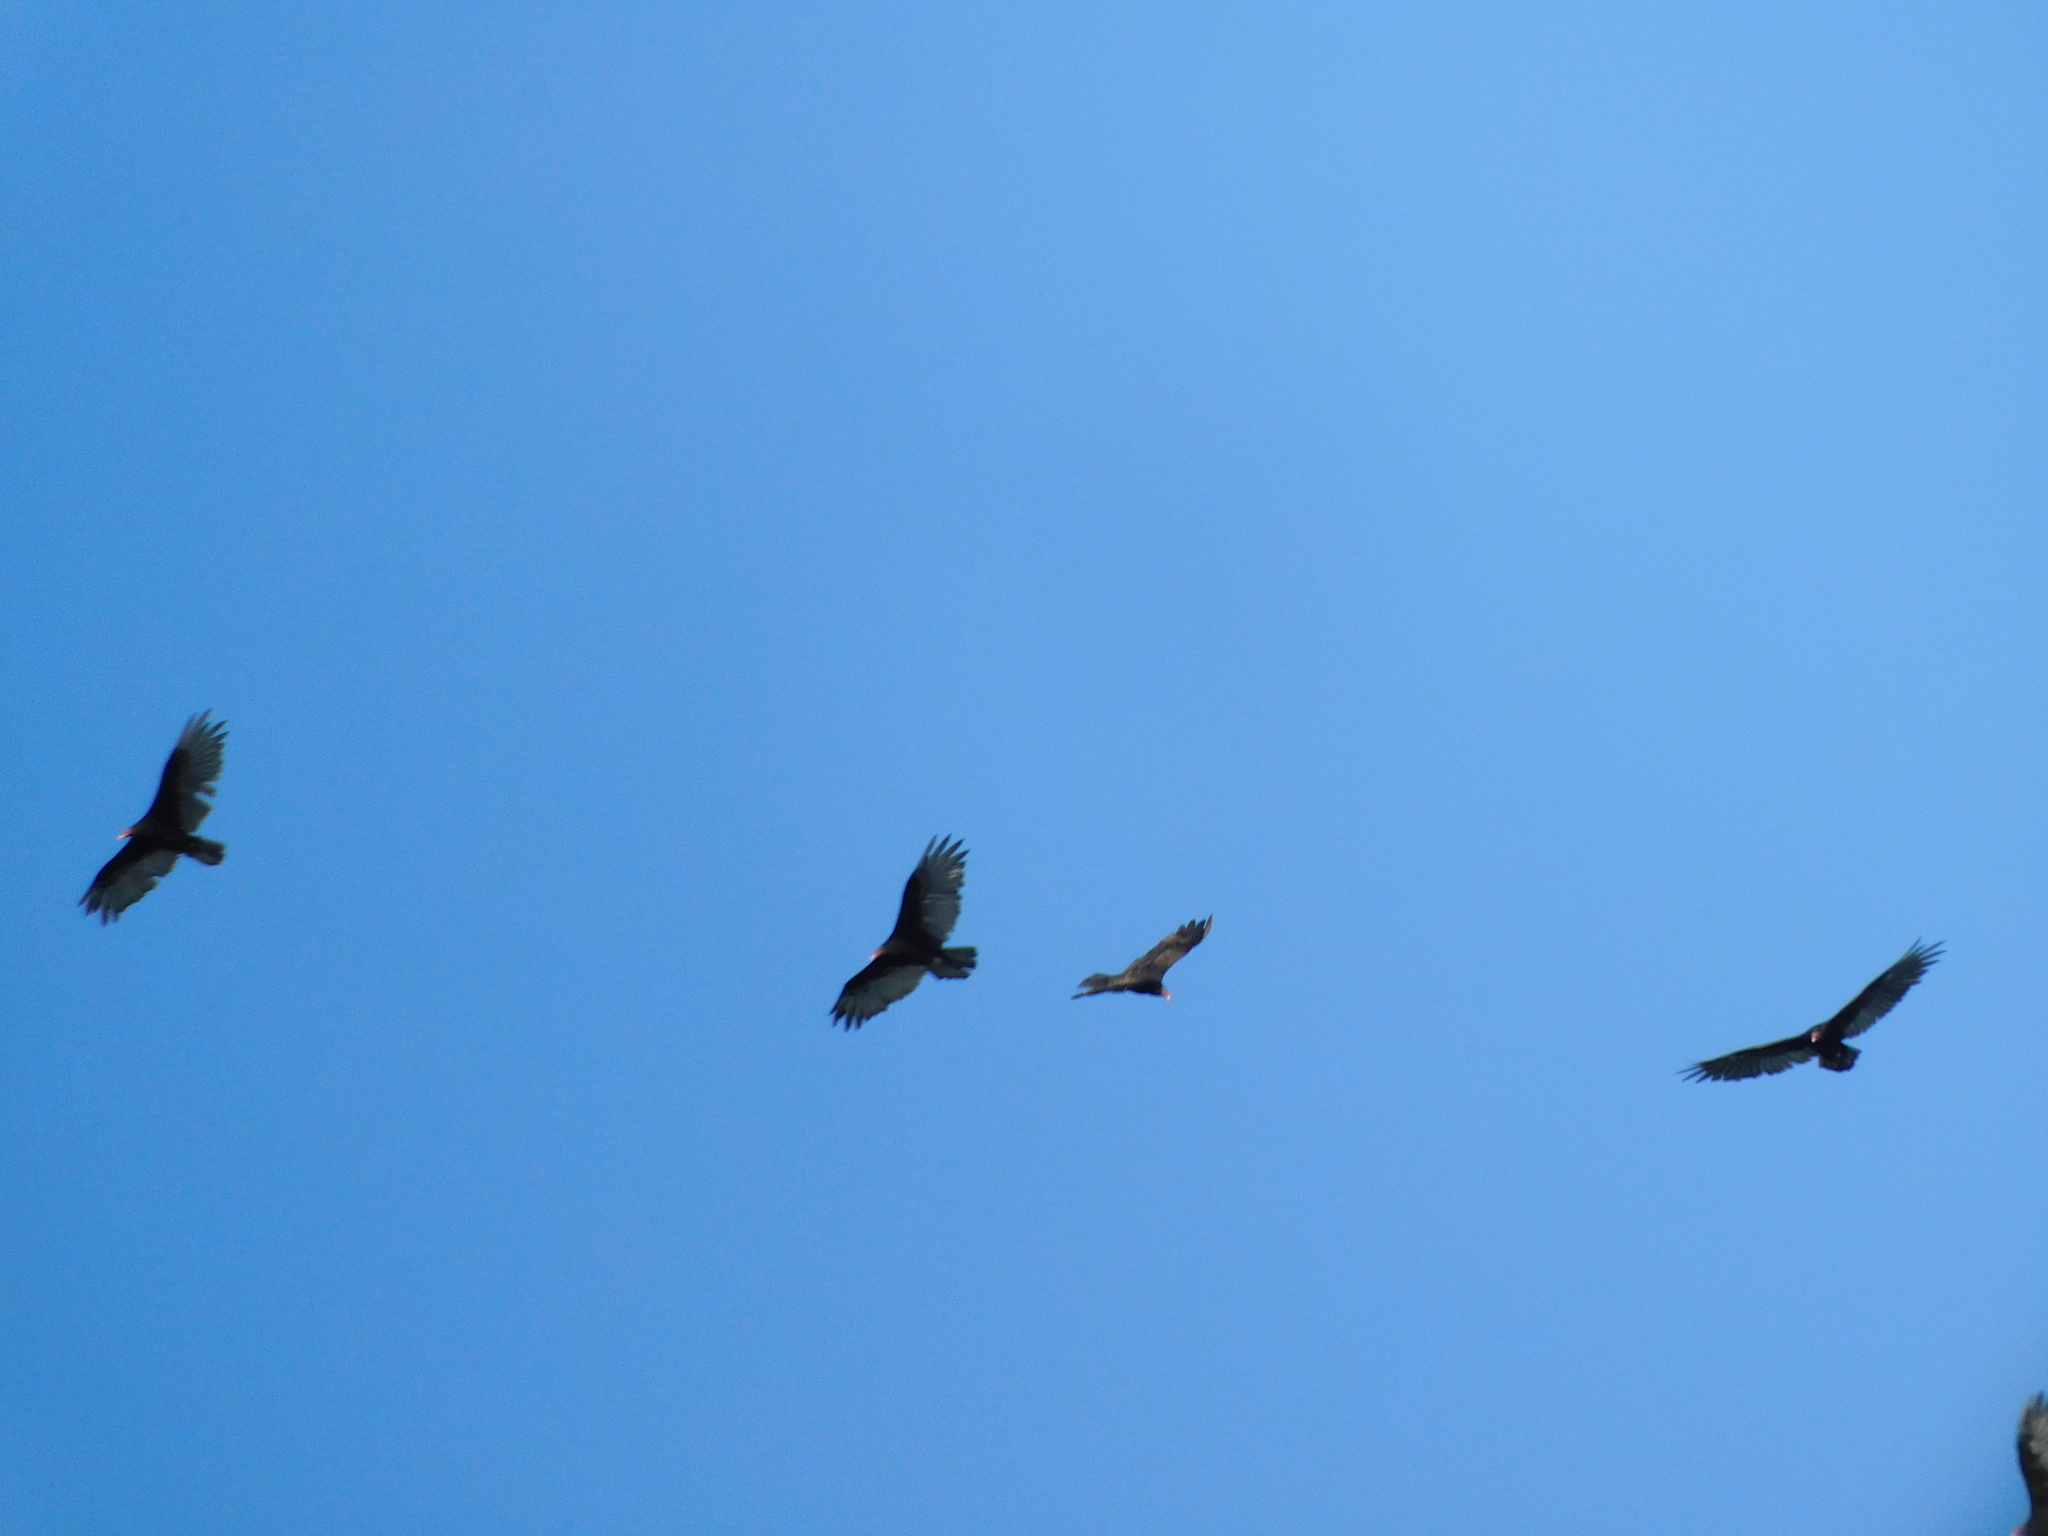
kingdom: Animalia
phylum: Chordata
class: Aves
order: Accipitriformes
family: Cathartidae
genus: Cathartes
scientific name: Cathartes aura
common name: Turkey vulture
